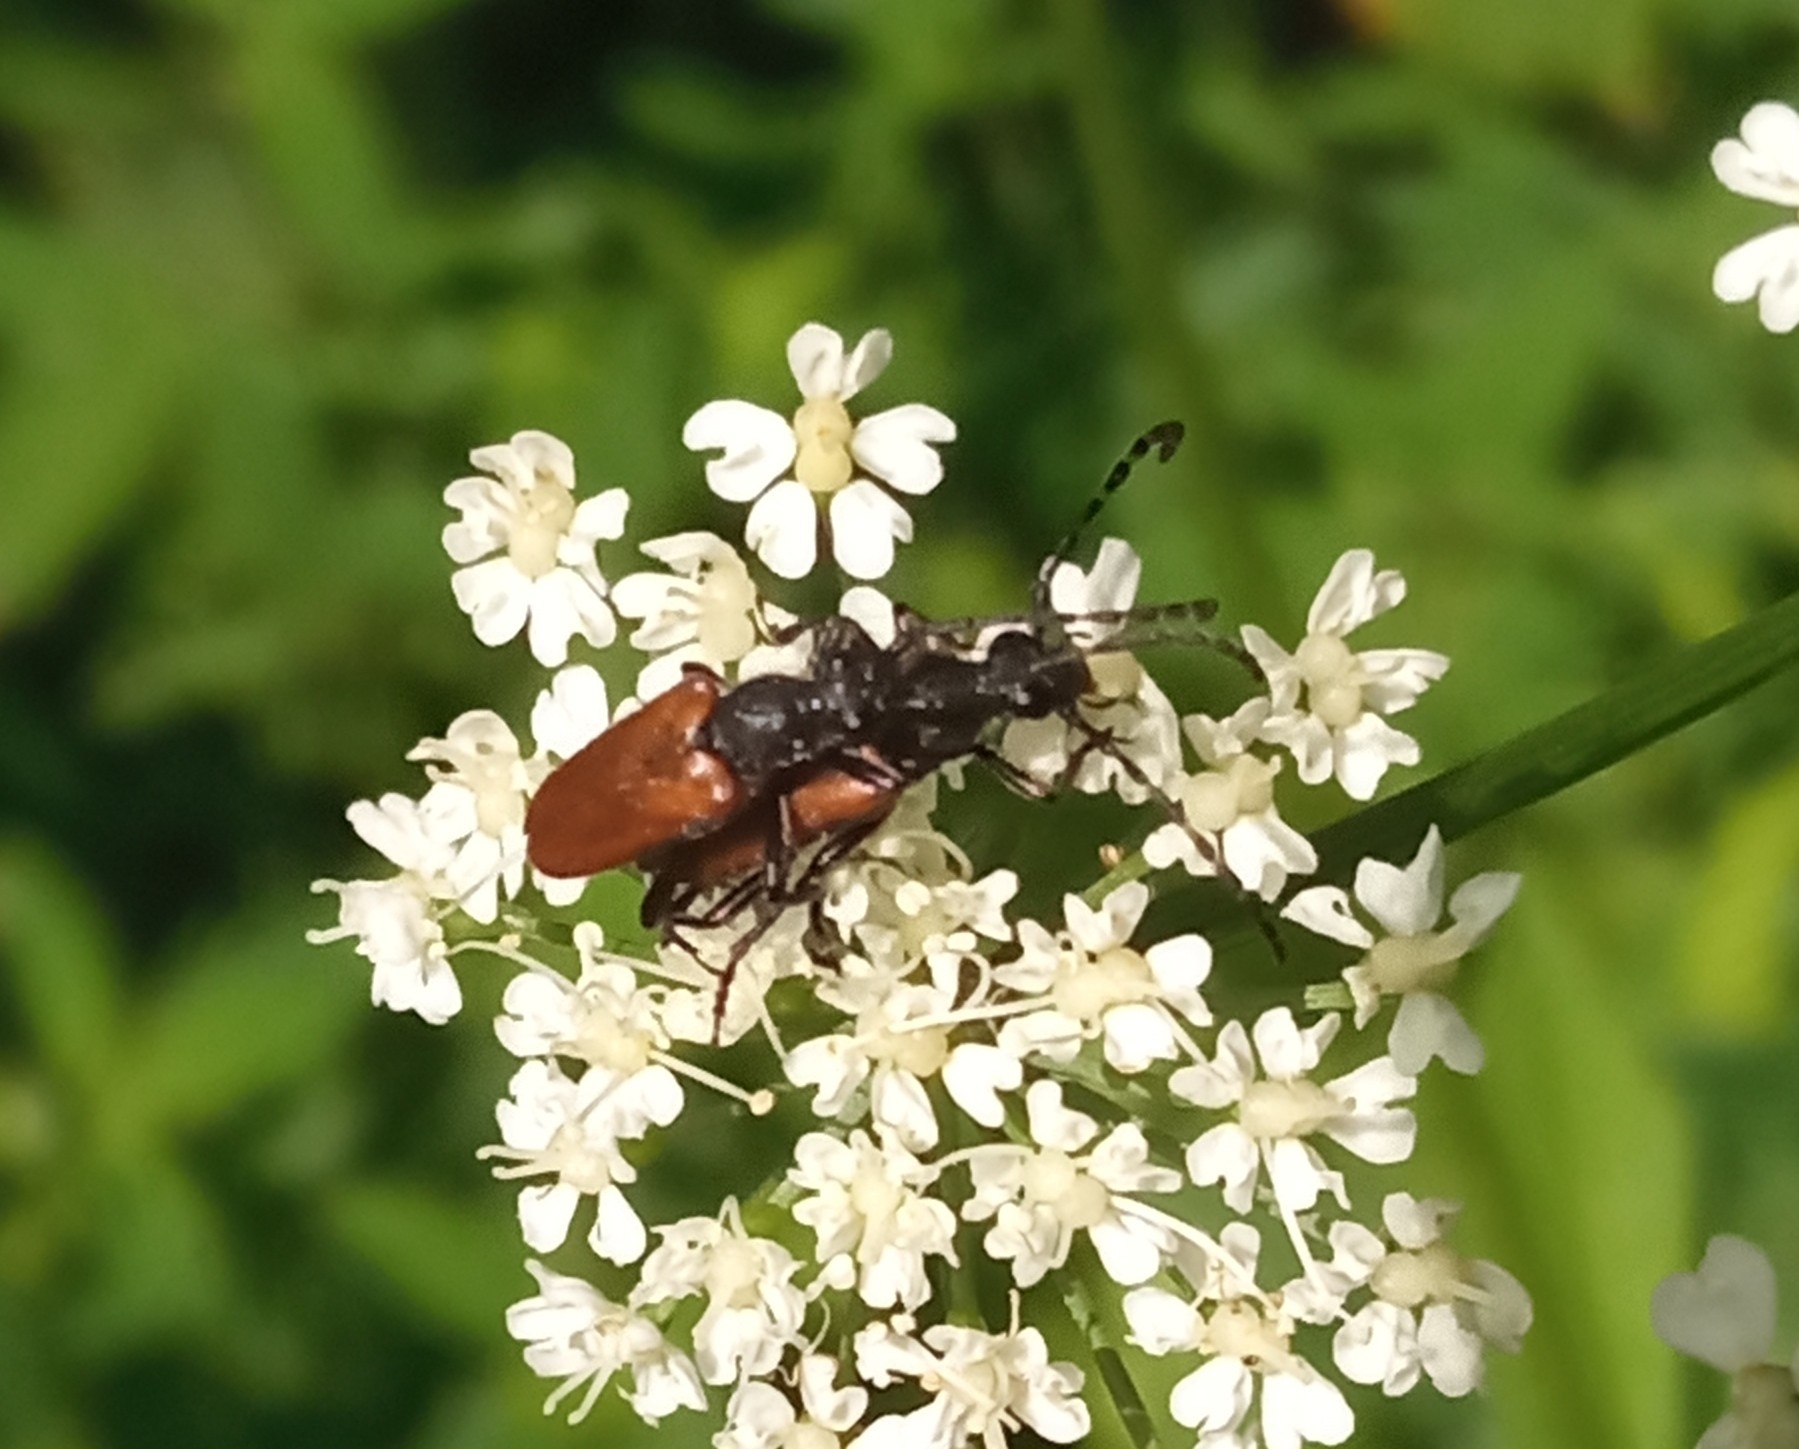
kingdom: Animalia
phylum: Arthropoda
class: Insecta
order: Coleoptera
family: Cerambycidae
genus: Paracorymbia
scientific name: Paracorymbia maculicornis
